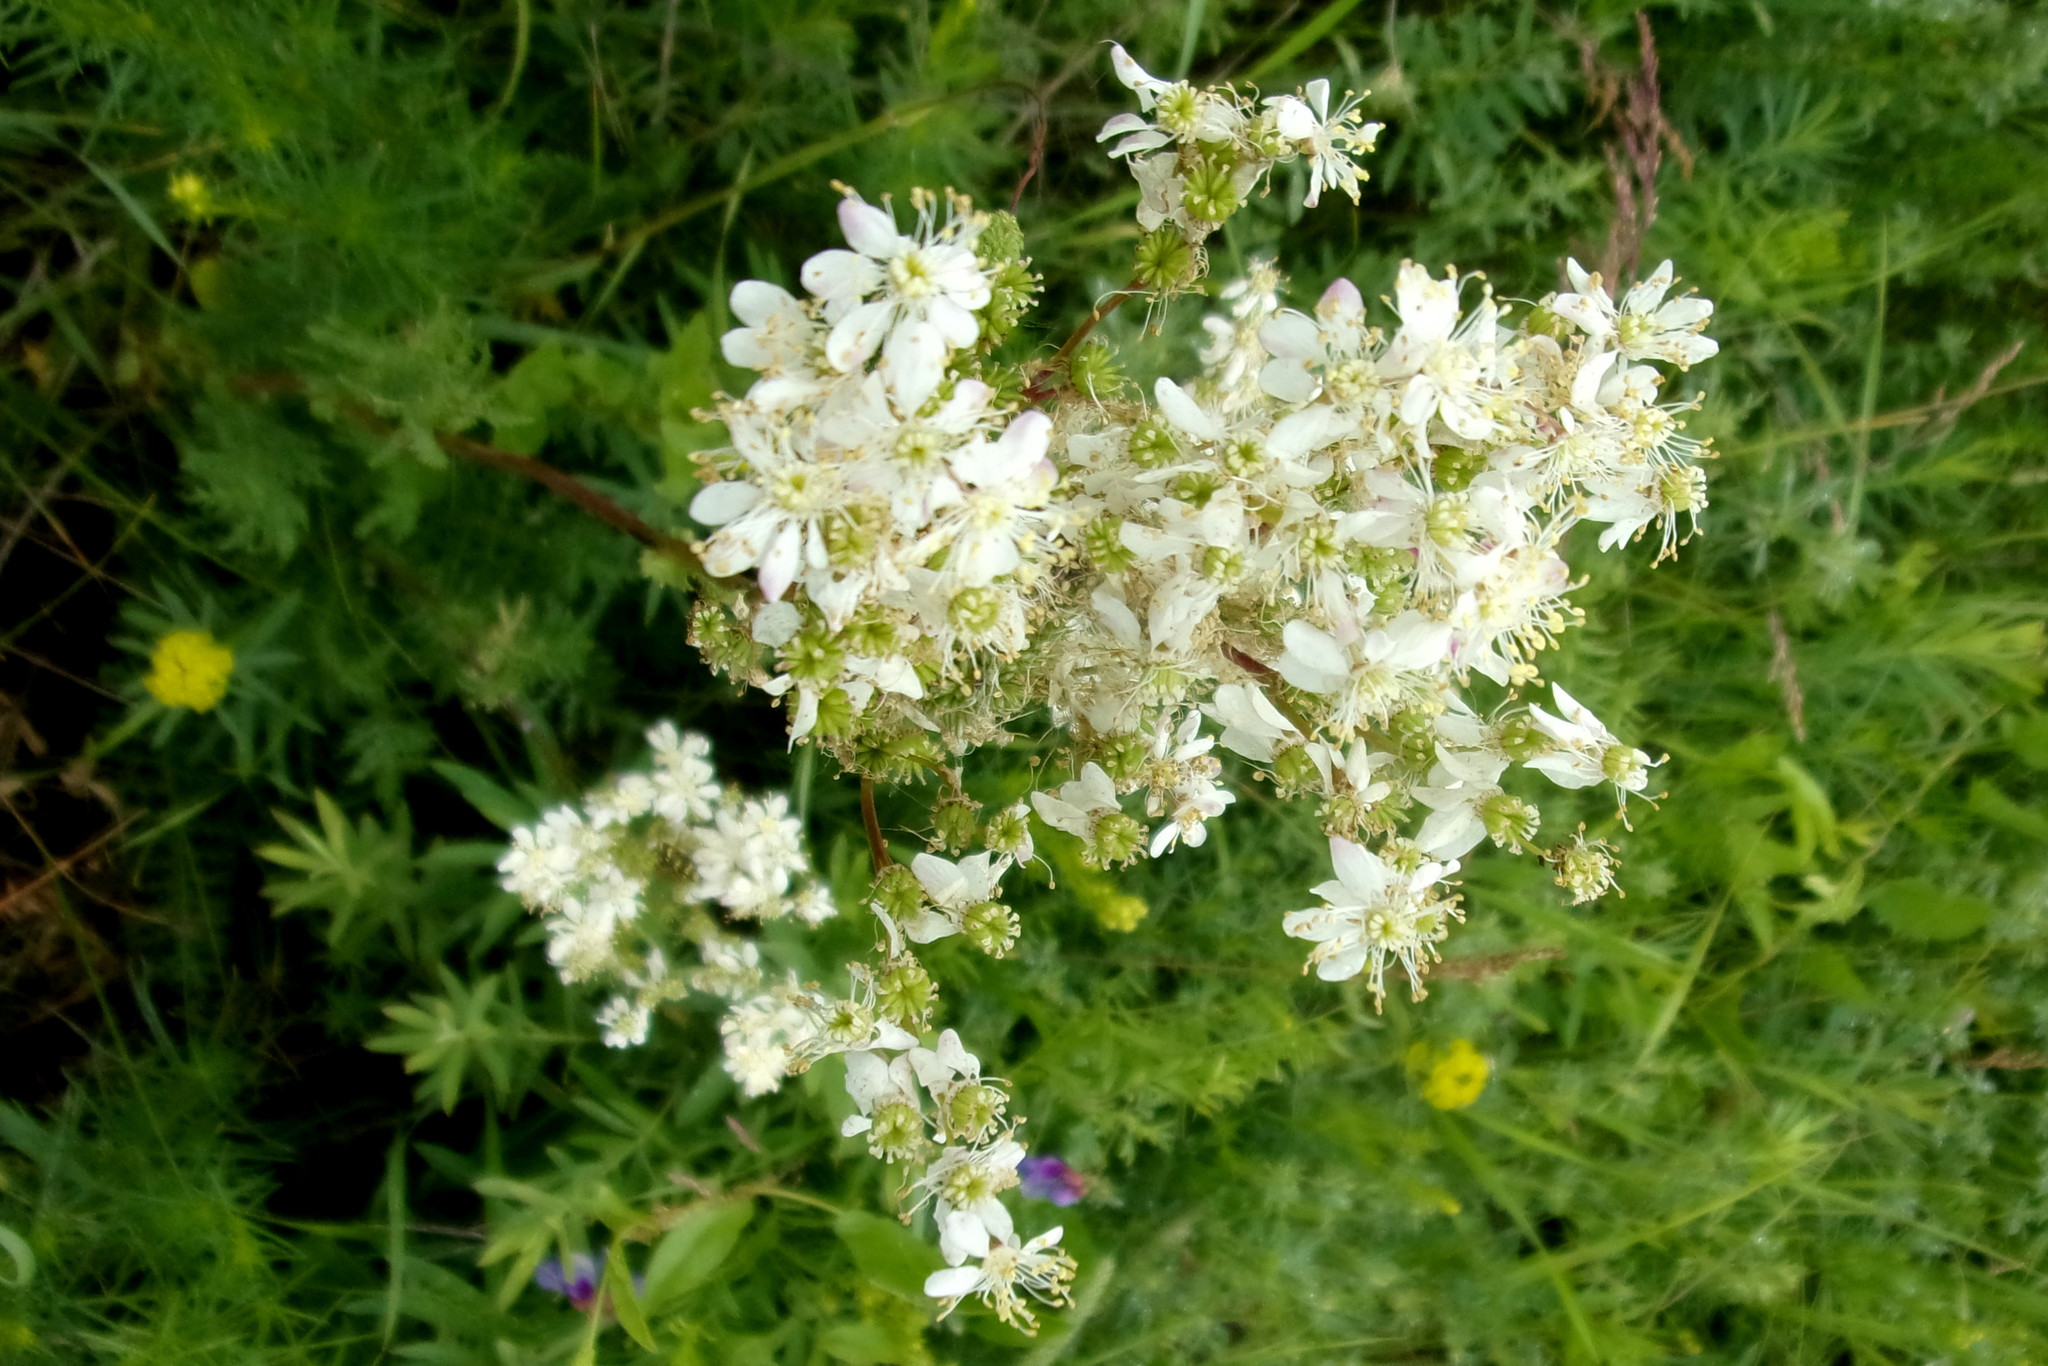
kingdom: Plantae
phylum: Tracheophyta
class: Magnoliopsida
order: Rosales
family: Rosaceae
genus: Filipendula
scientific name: Filipendula vulgaris
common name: Dropwort
